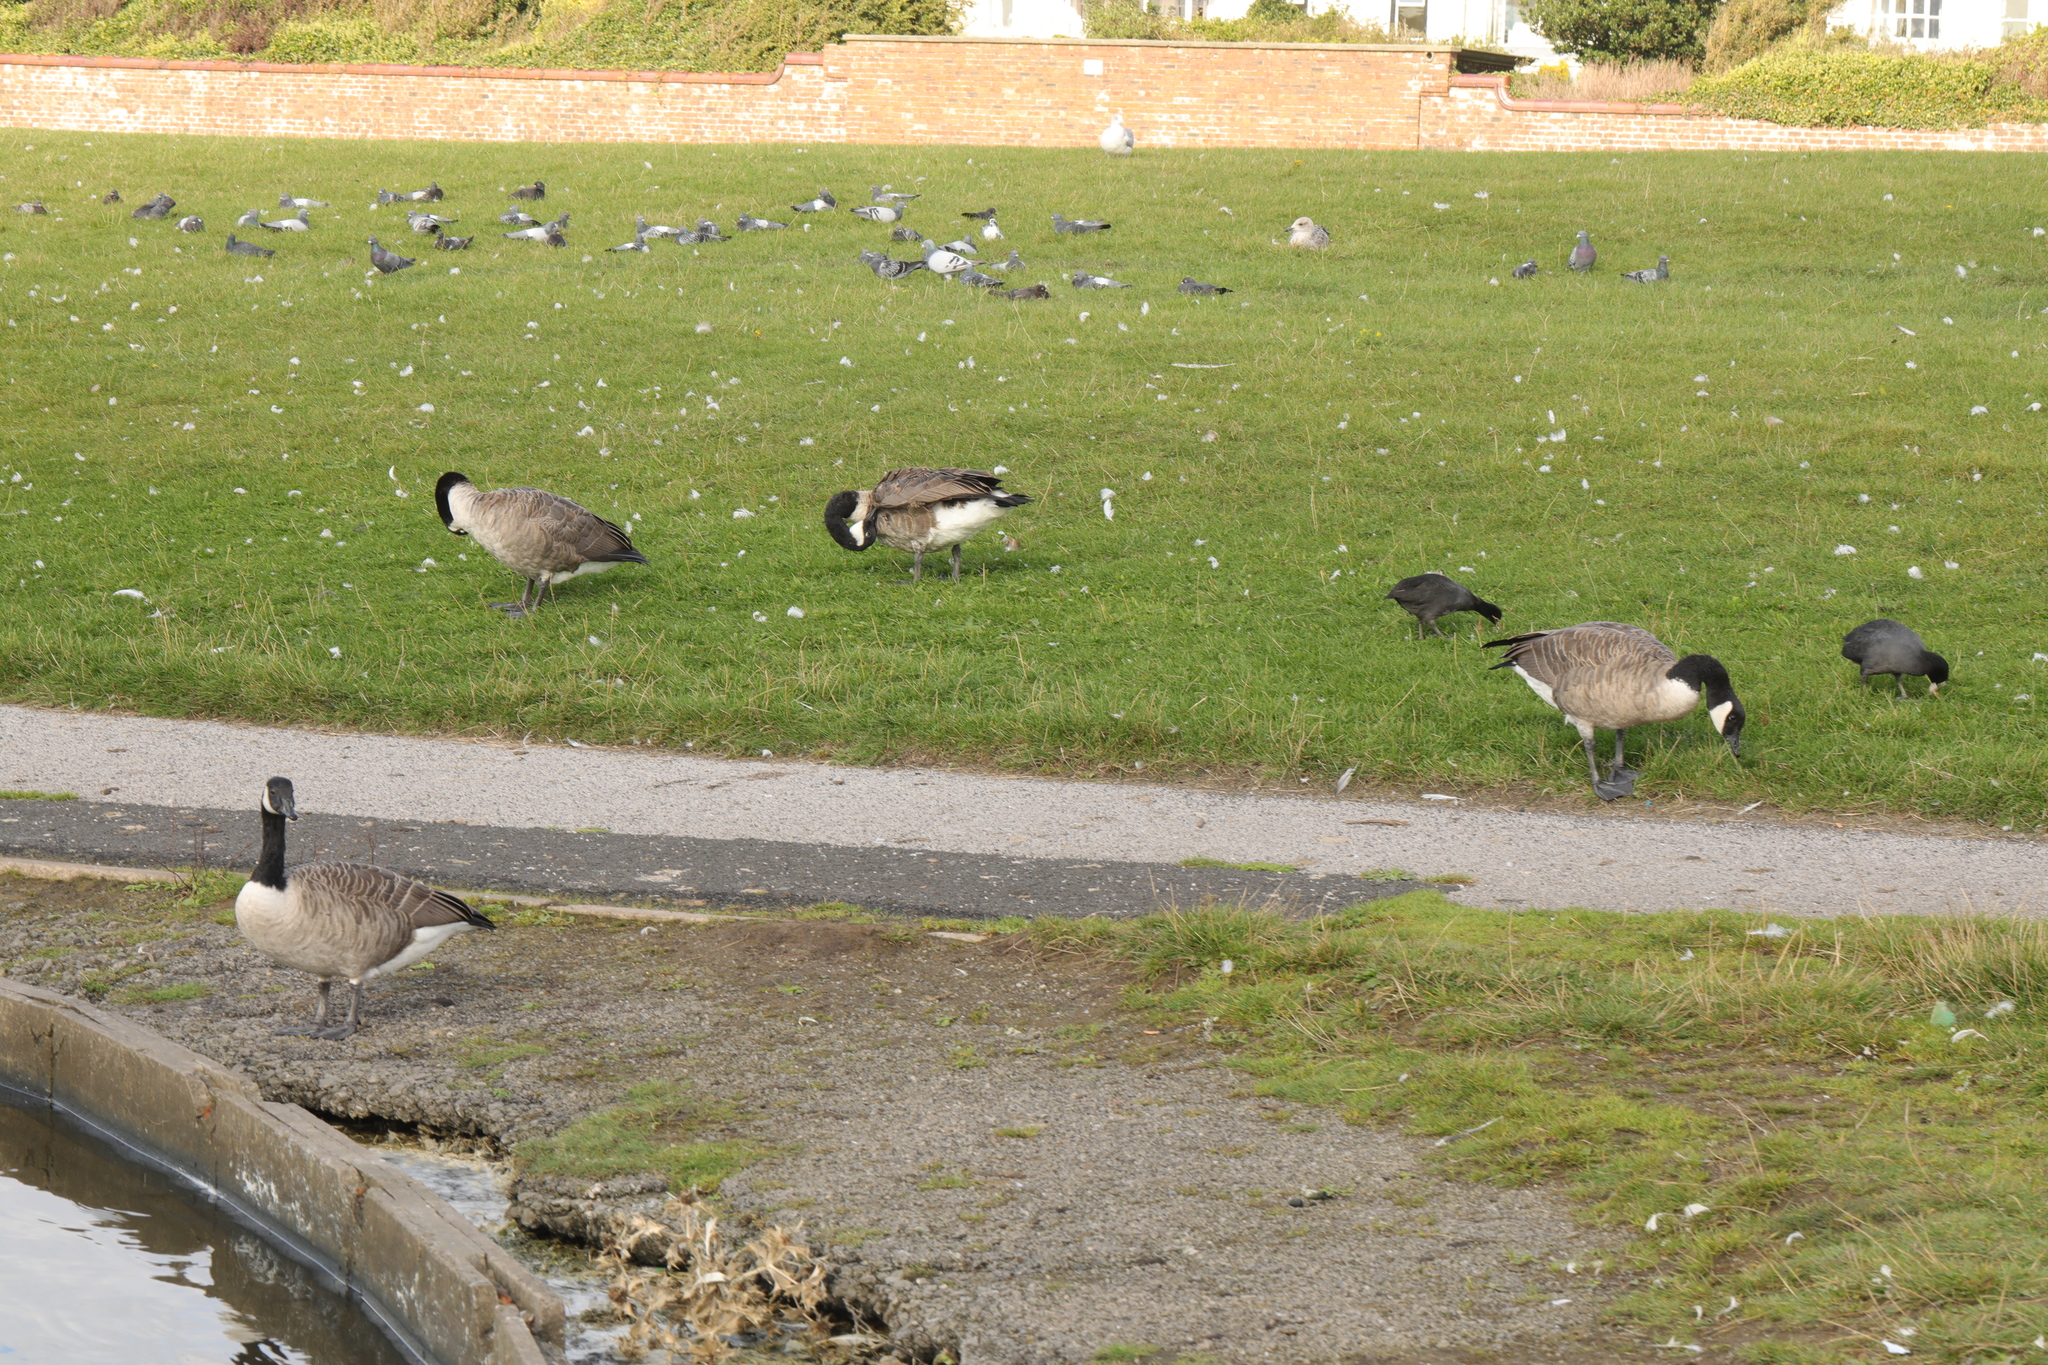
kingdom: Animalia
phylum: Chordata
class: Aves
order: Anseriformes
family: Anatidae
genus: Branta
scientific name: Branta canadensis
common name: Canada goose
